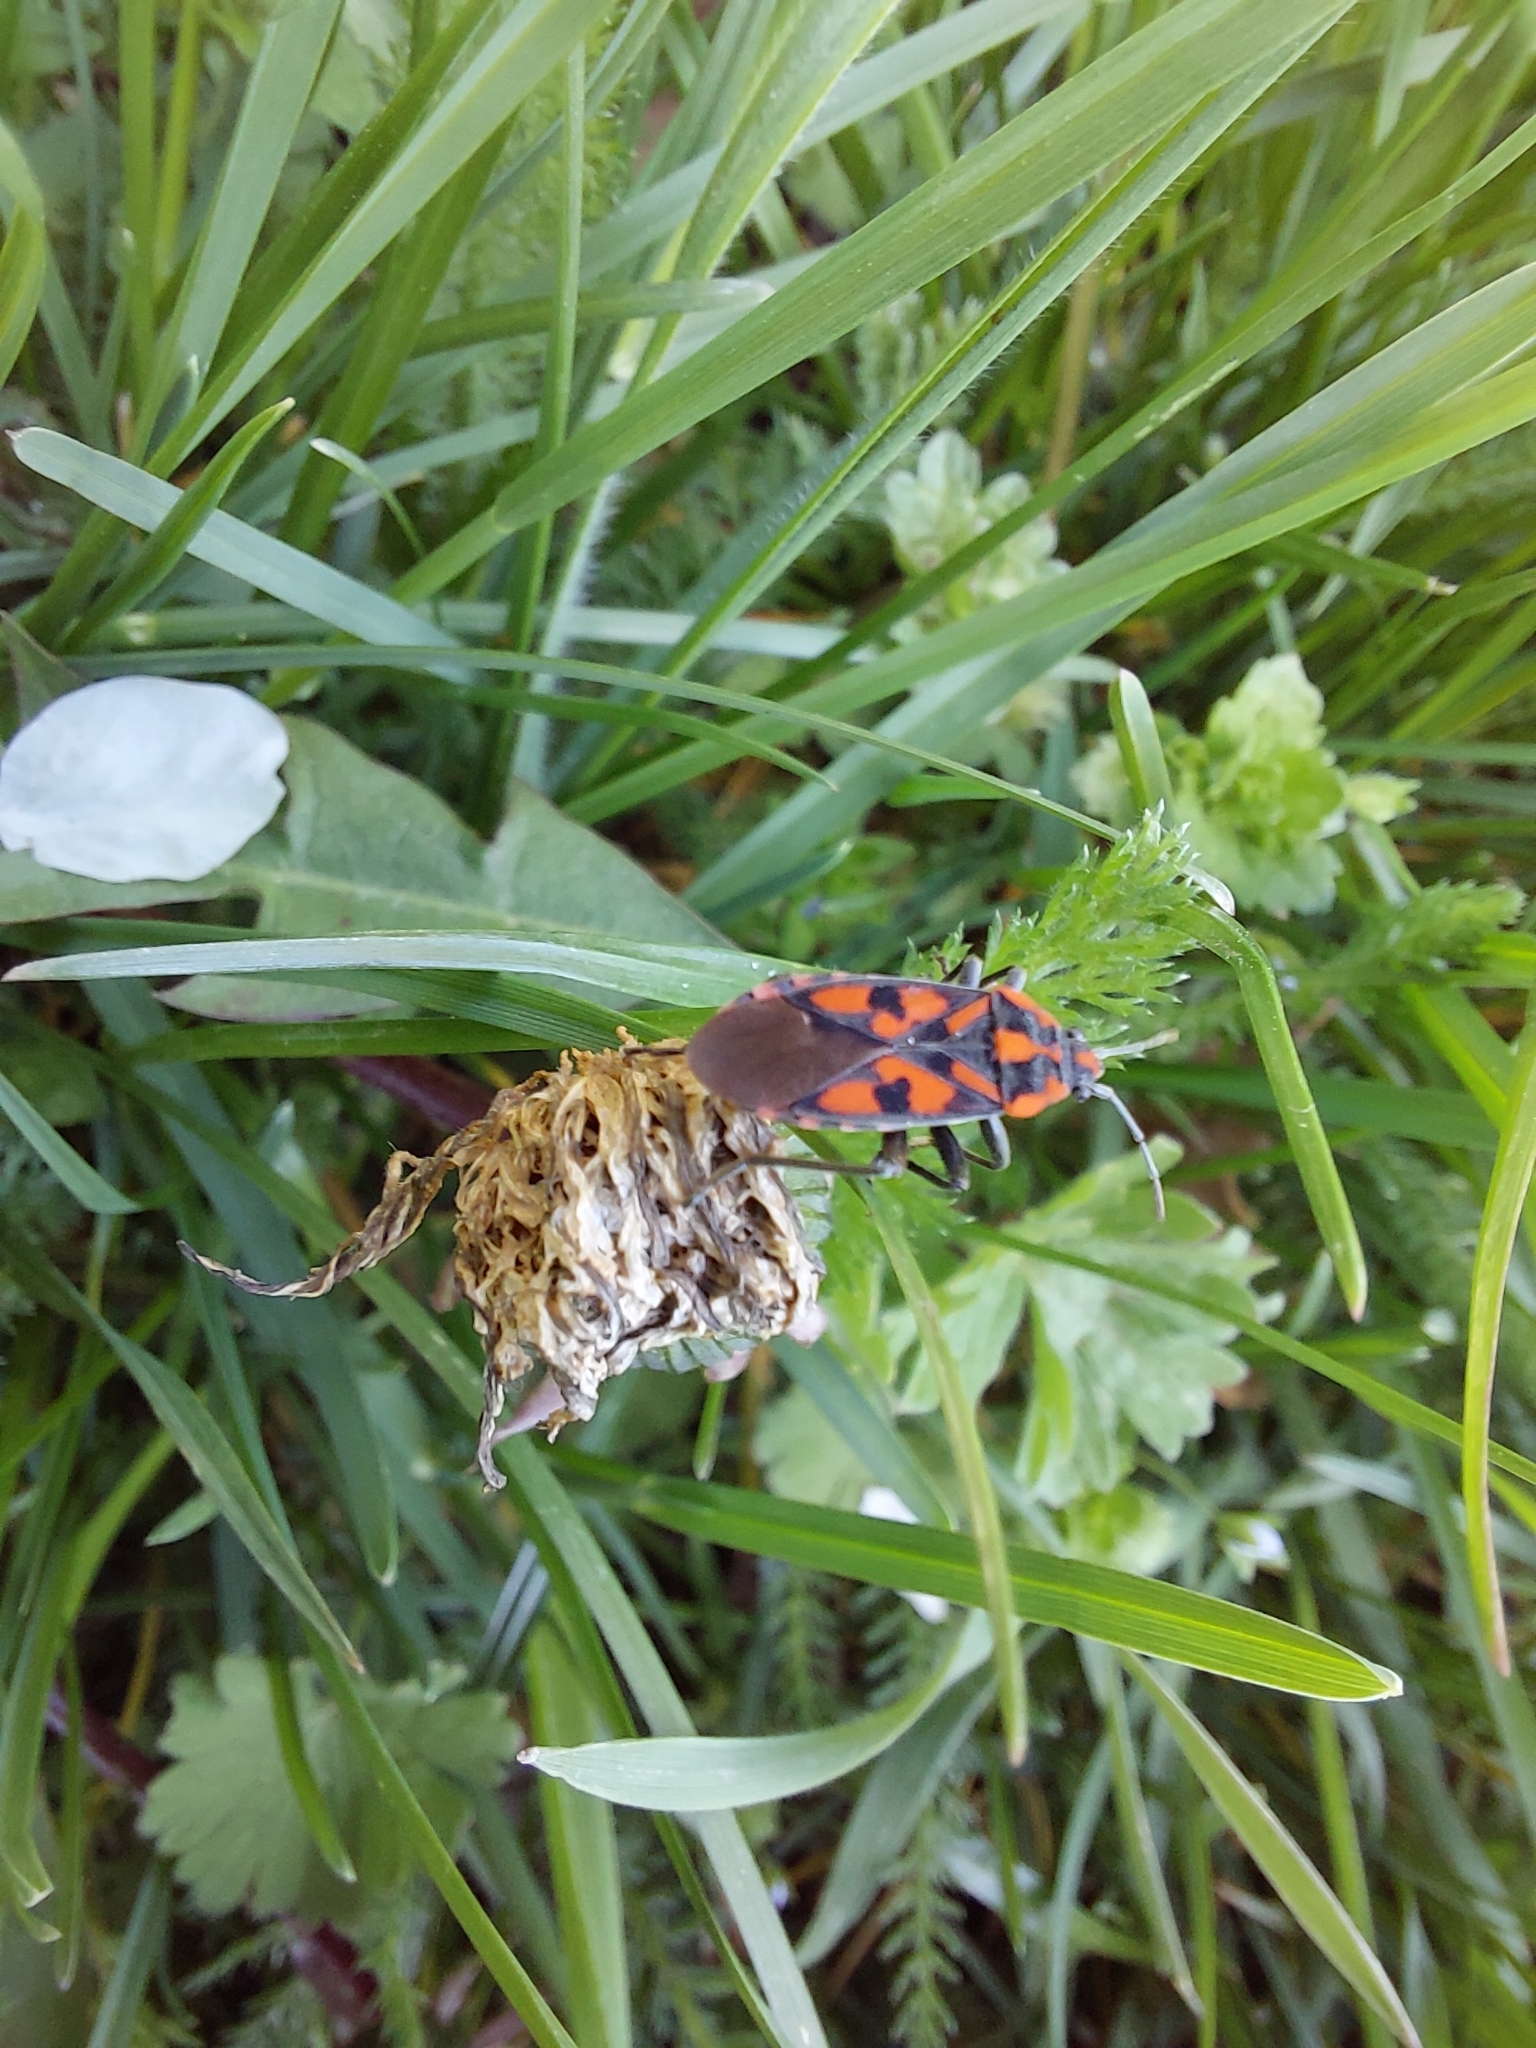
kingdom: Animalia
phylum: Arthropoda
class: Insecta
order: Hemiptera
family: Lygaeidae
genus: Spilostethus
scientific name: Spilostethus saxatilis
